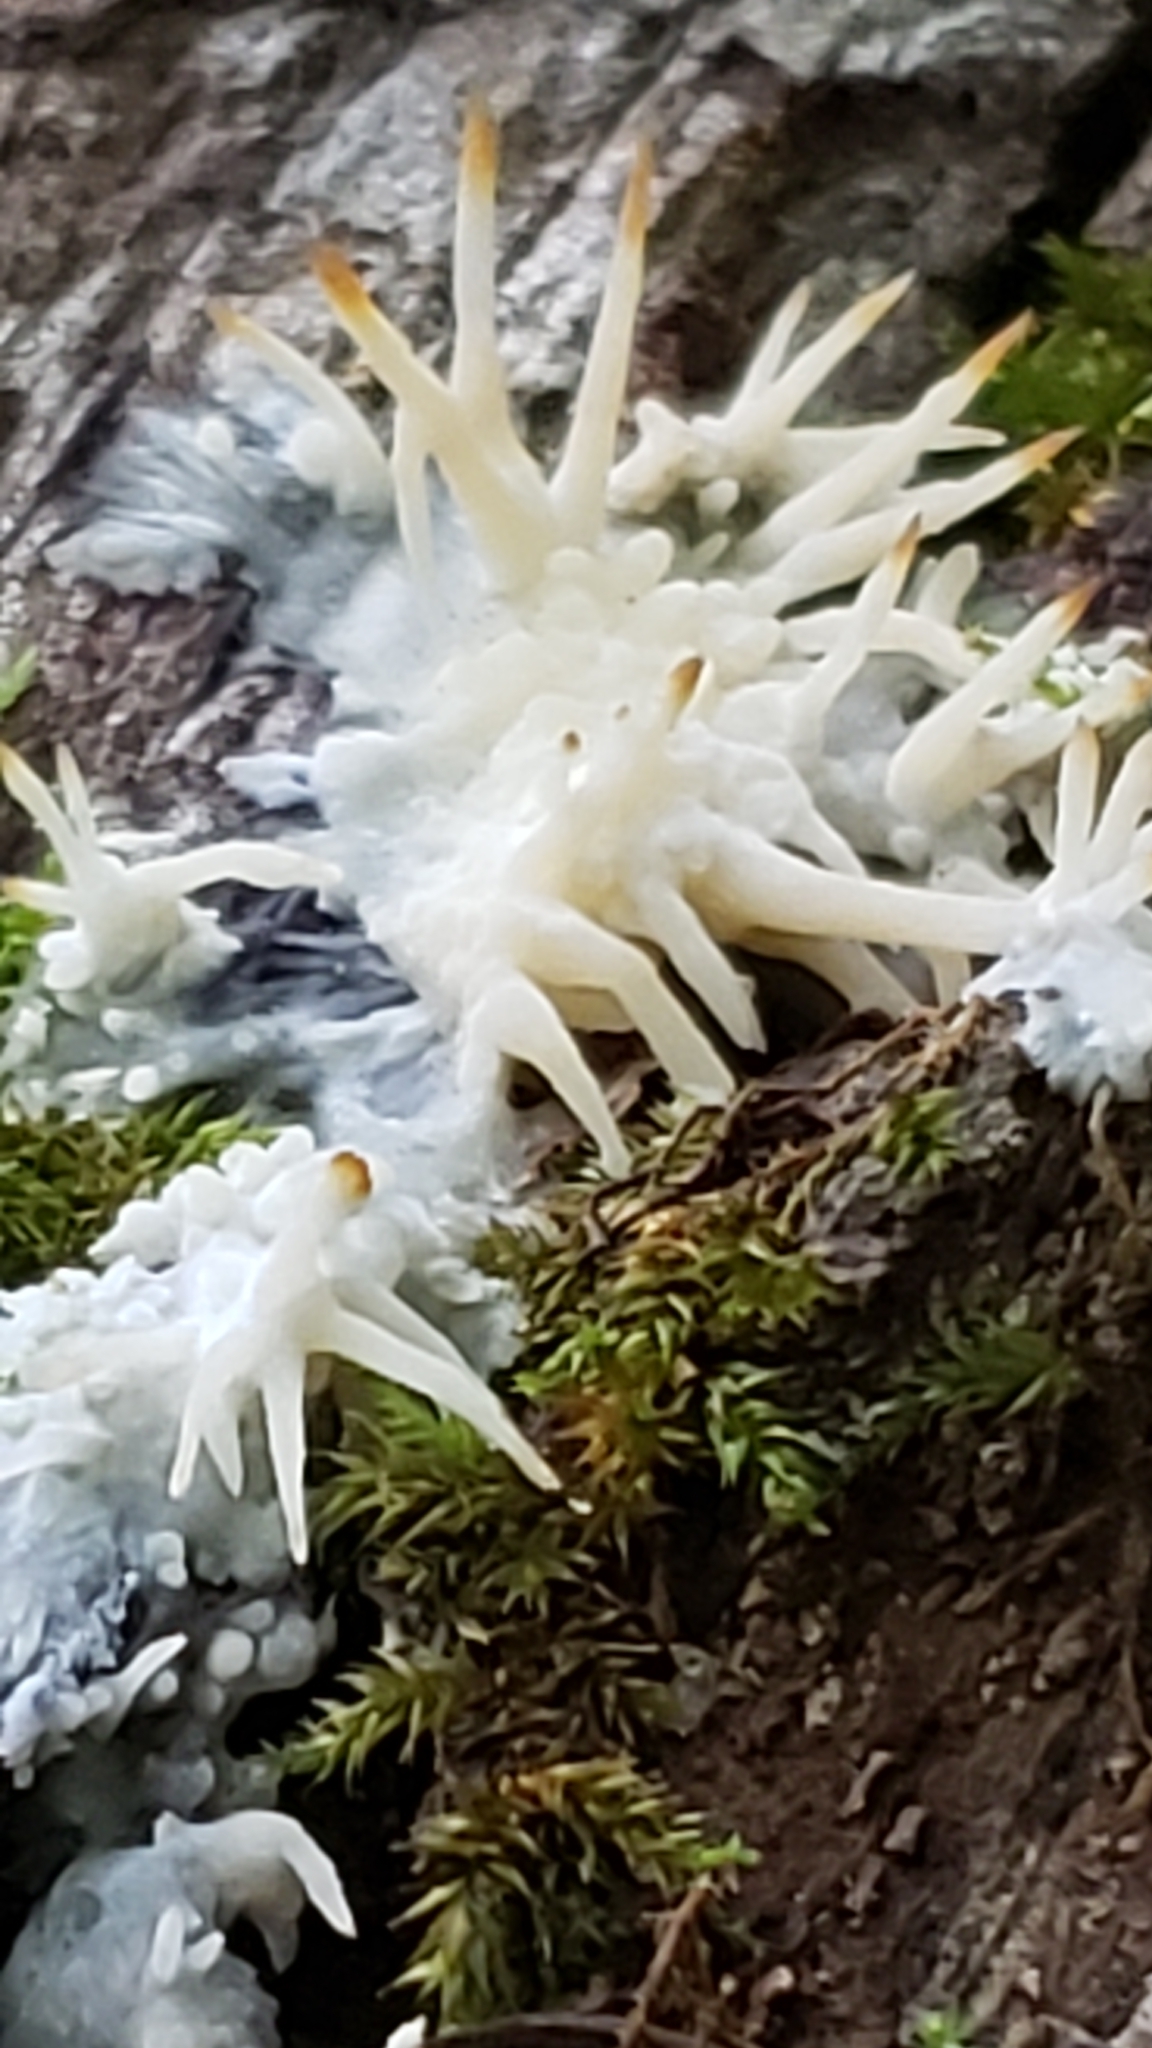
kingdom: Fungi
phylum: Basidiomycota
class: Agaricomycetes
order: Agaricales
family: Radulomycetaceae
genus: Radulomyces
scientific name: Radulomyces copelandii
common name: Asian beauty
